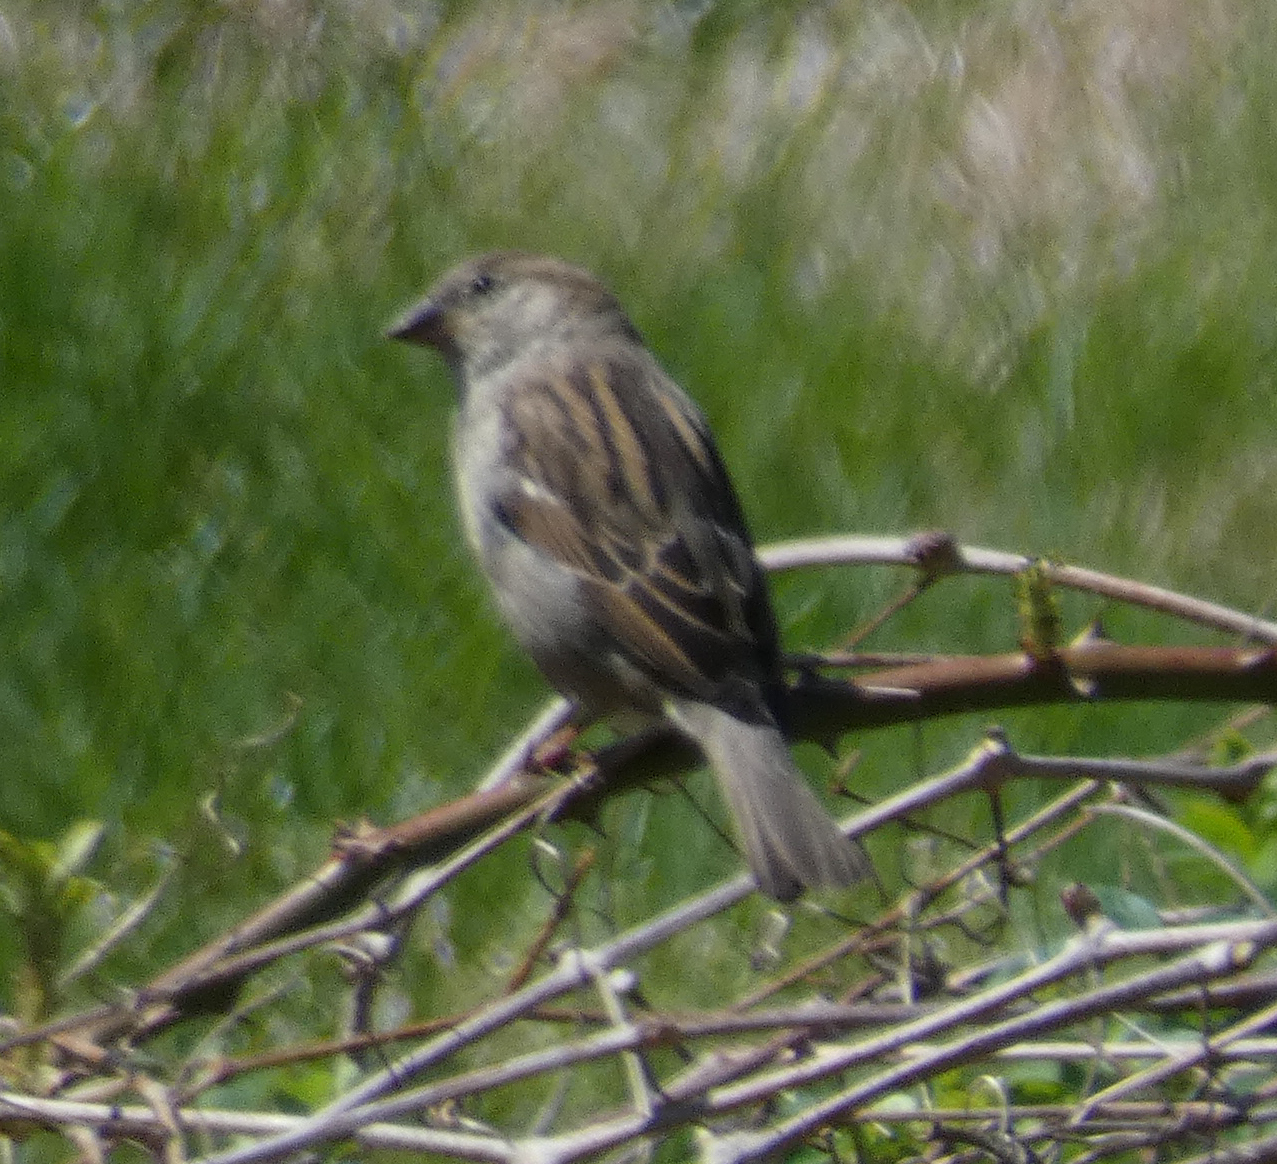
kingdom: Animalia
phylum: Chordata
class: Aves
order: Passeriformes
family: Passeridae
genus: Passer
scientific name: Passer domesticus
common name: House sparrow
